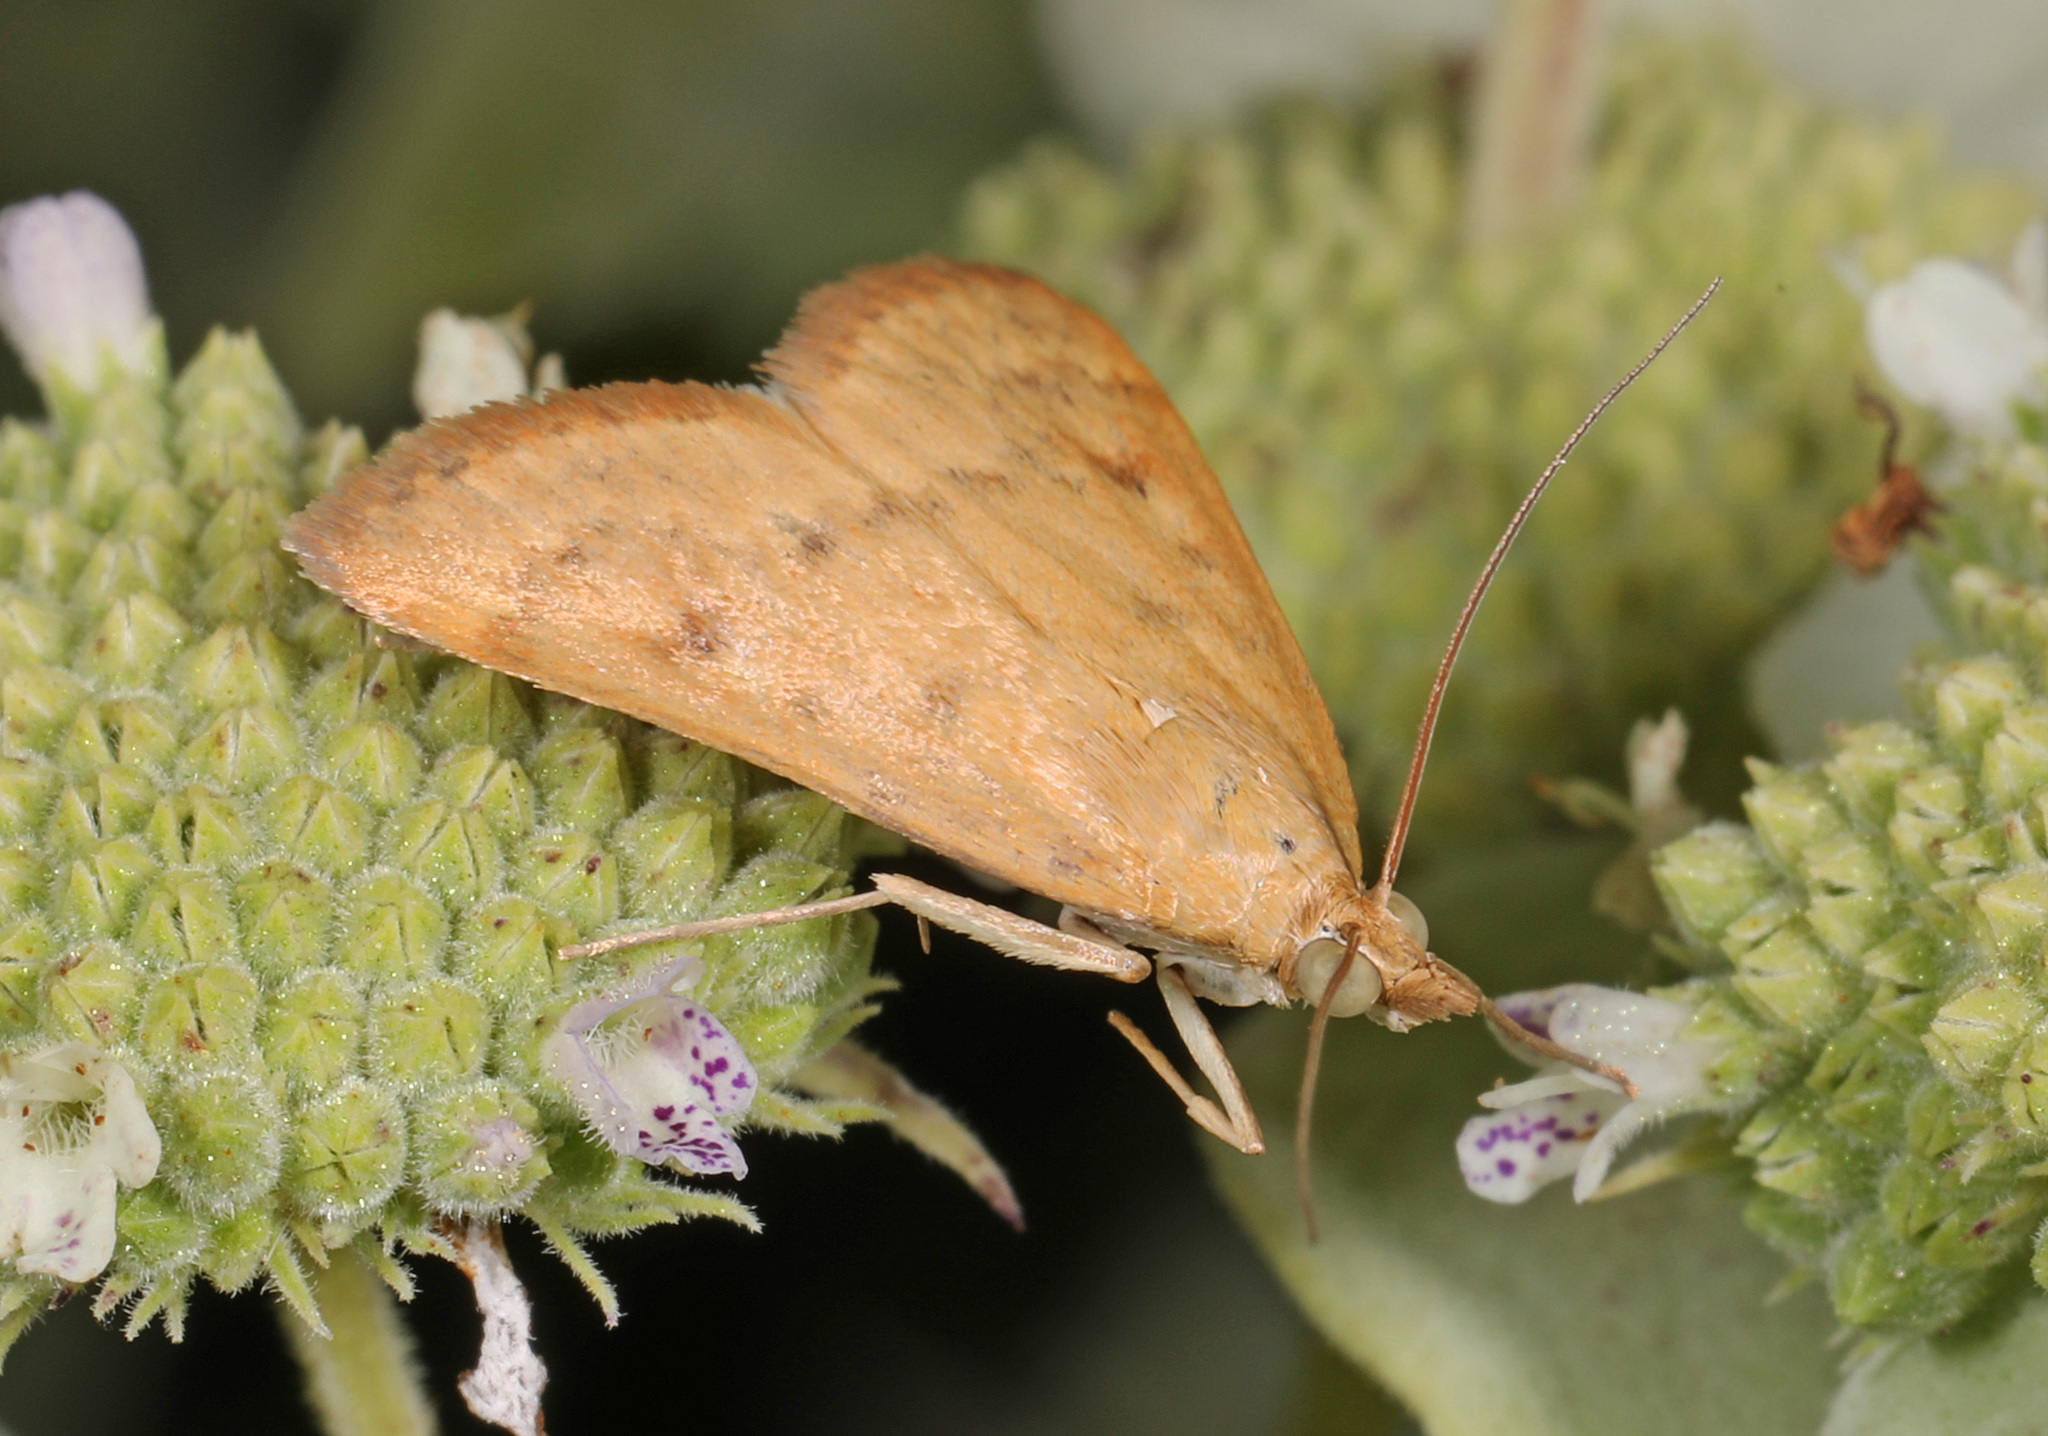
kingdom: Animalia
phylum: Arthropoda
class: Insecta
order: Lepidoptera
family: Crambidae
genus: Achyra
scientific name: Achyra rantalis
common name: Garden webworm
